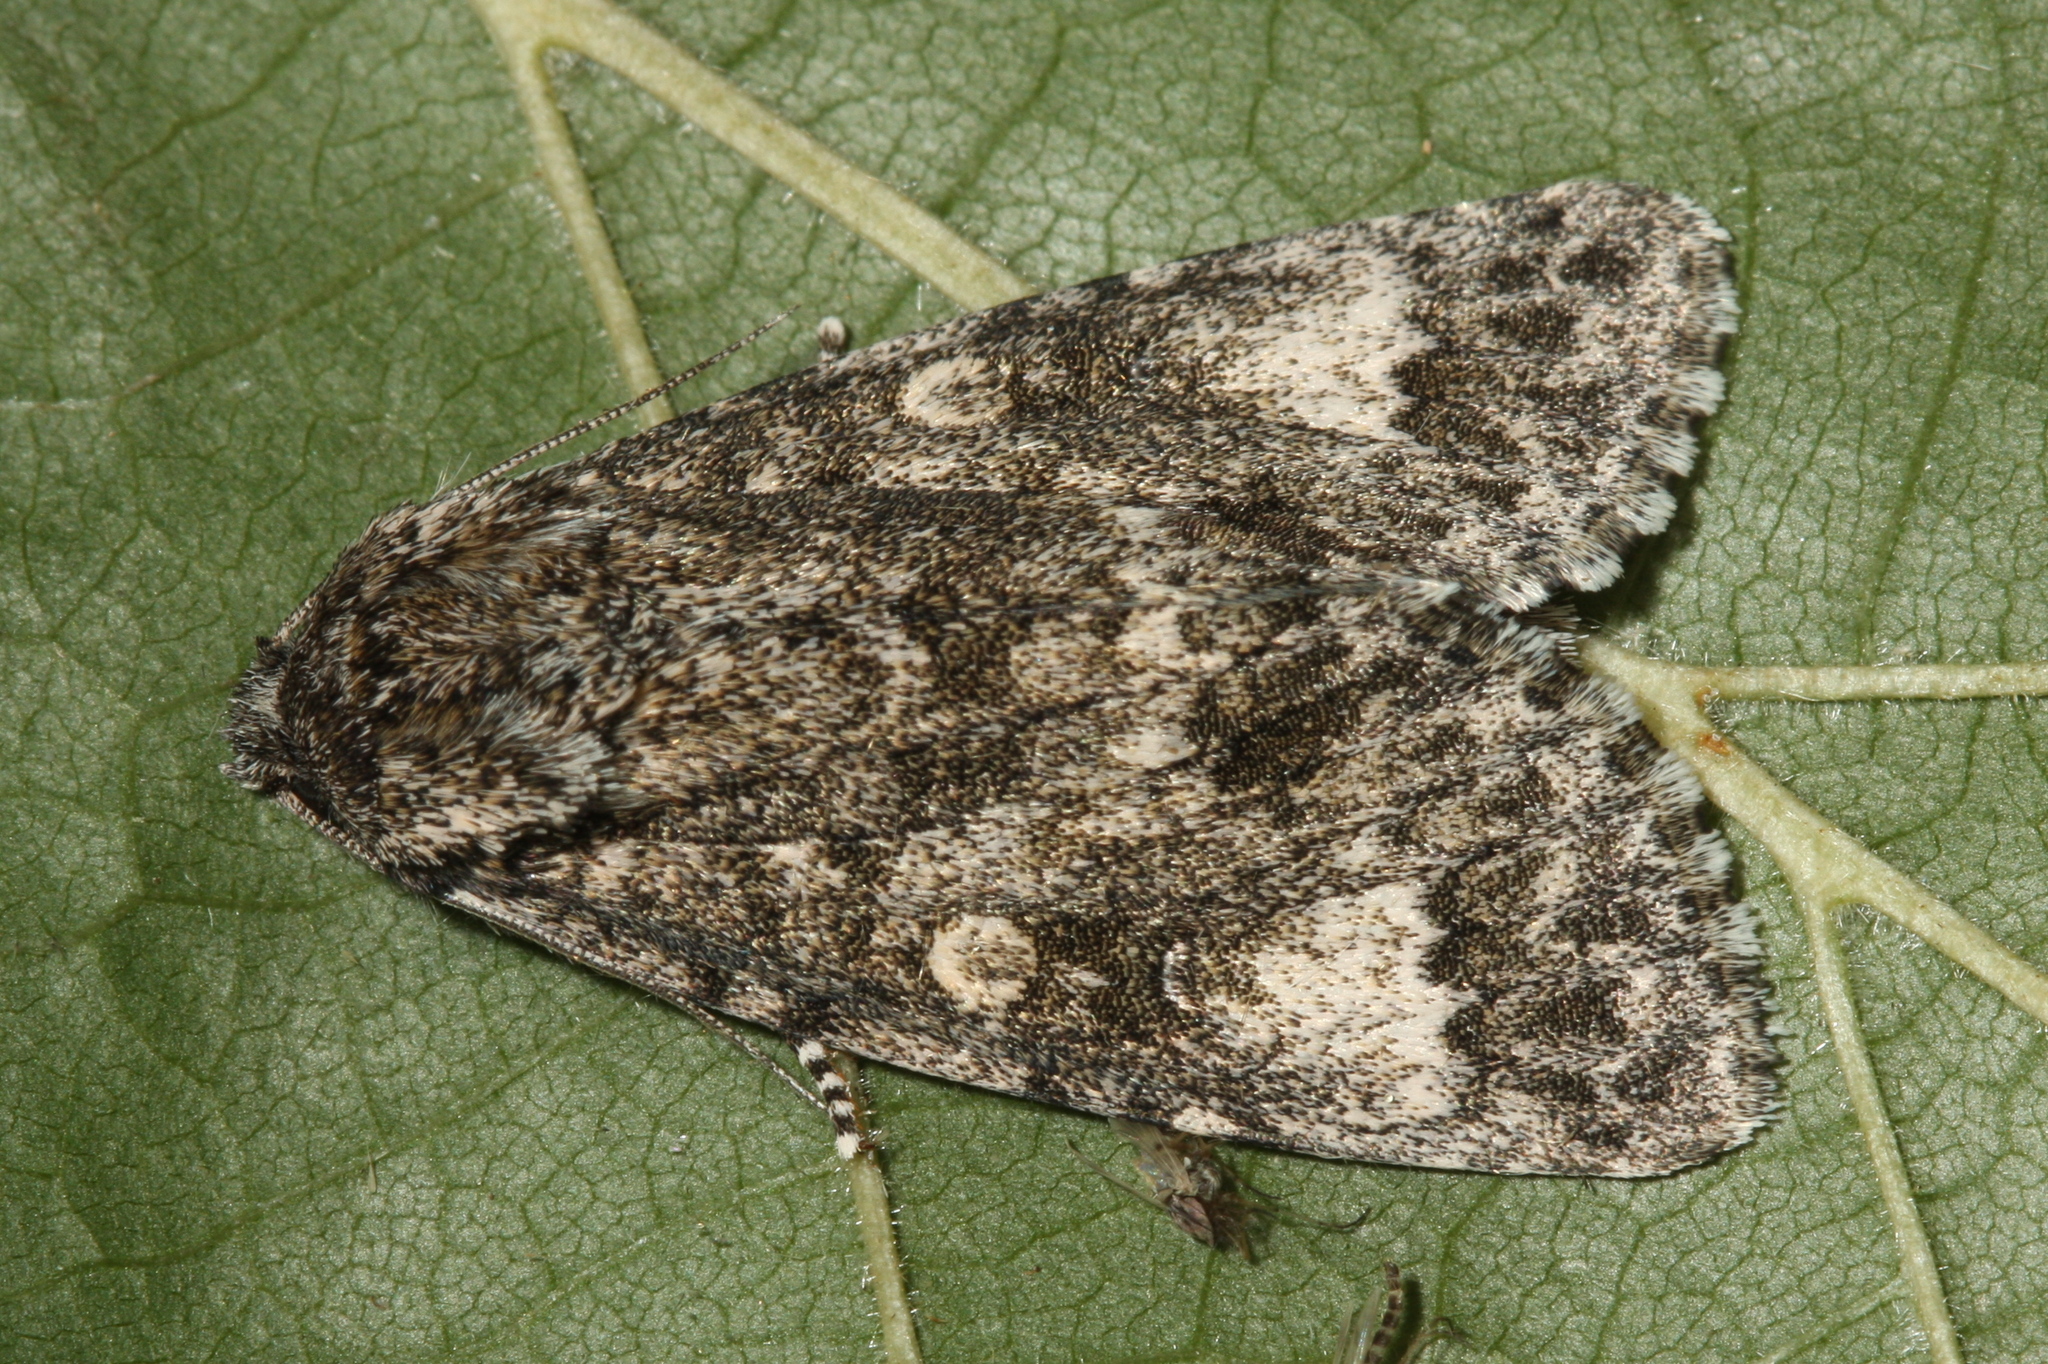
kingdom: Animalia
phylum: Arthropoda
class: Insecta
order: Lepidoptera
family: Noctuidae
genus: Acronicta
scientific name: Acronicta megacephala
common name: Poplar grey
